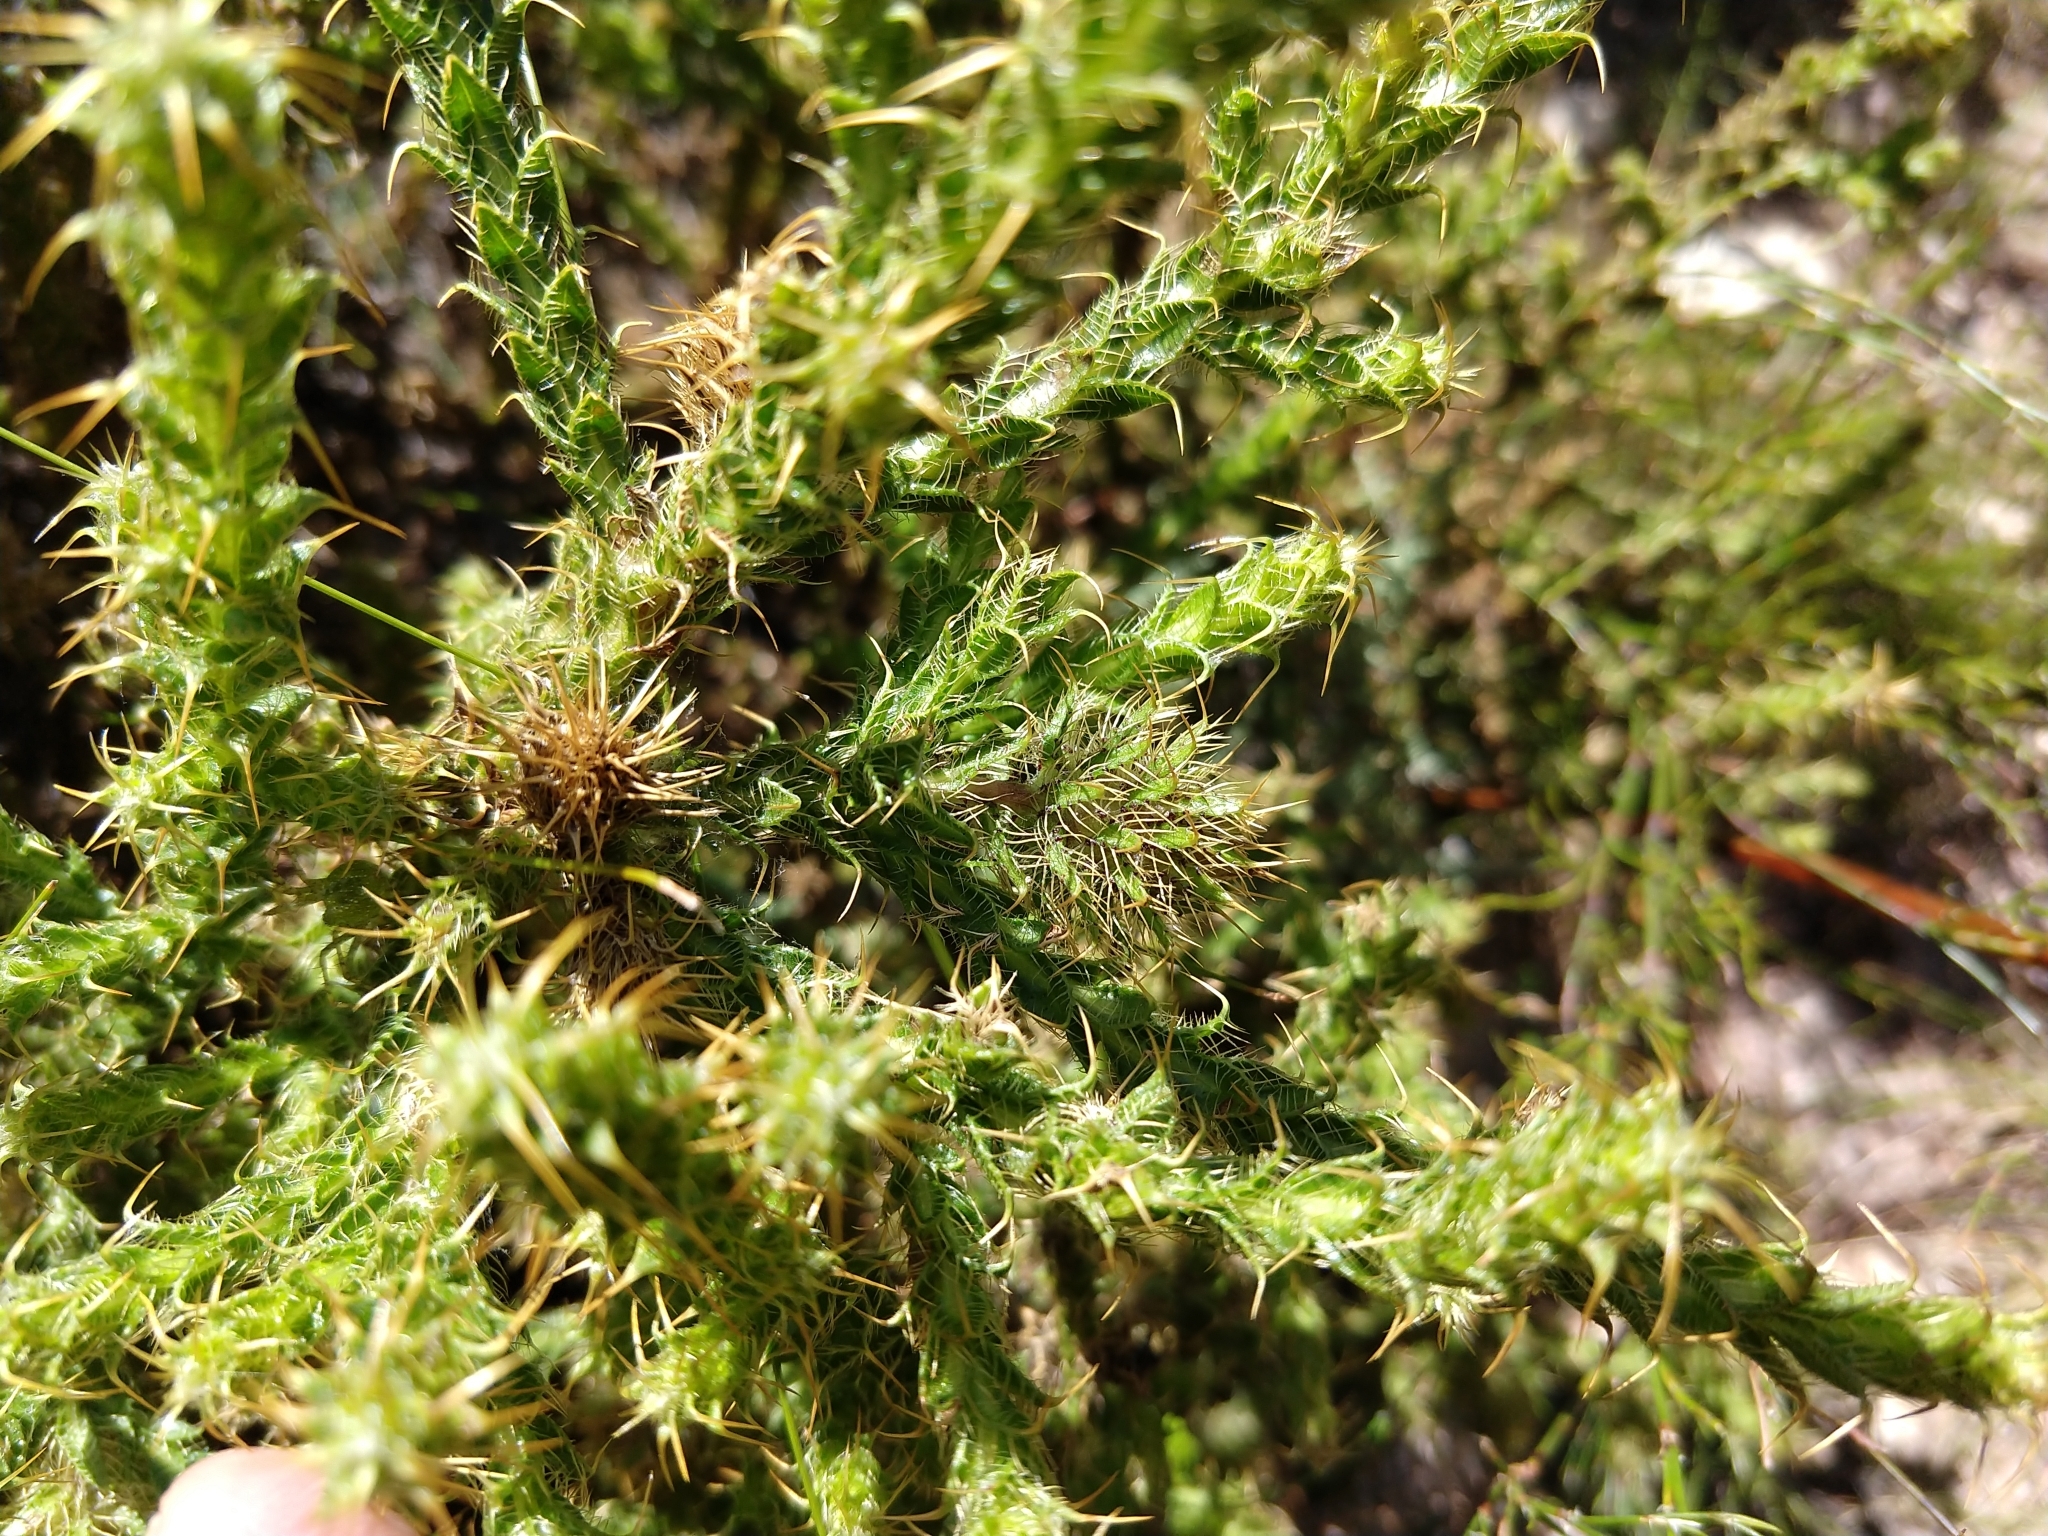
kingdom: Plantae
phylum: Tracheophyta
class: Magnoliopsida
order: Asterales
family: Asteraceae
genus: Cullumia
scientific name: Cullumia reticulata
